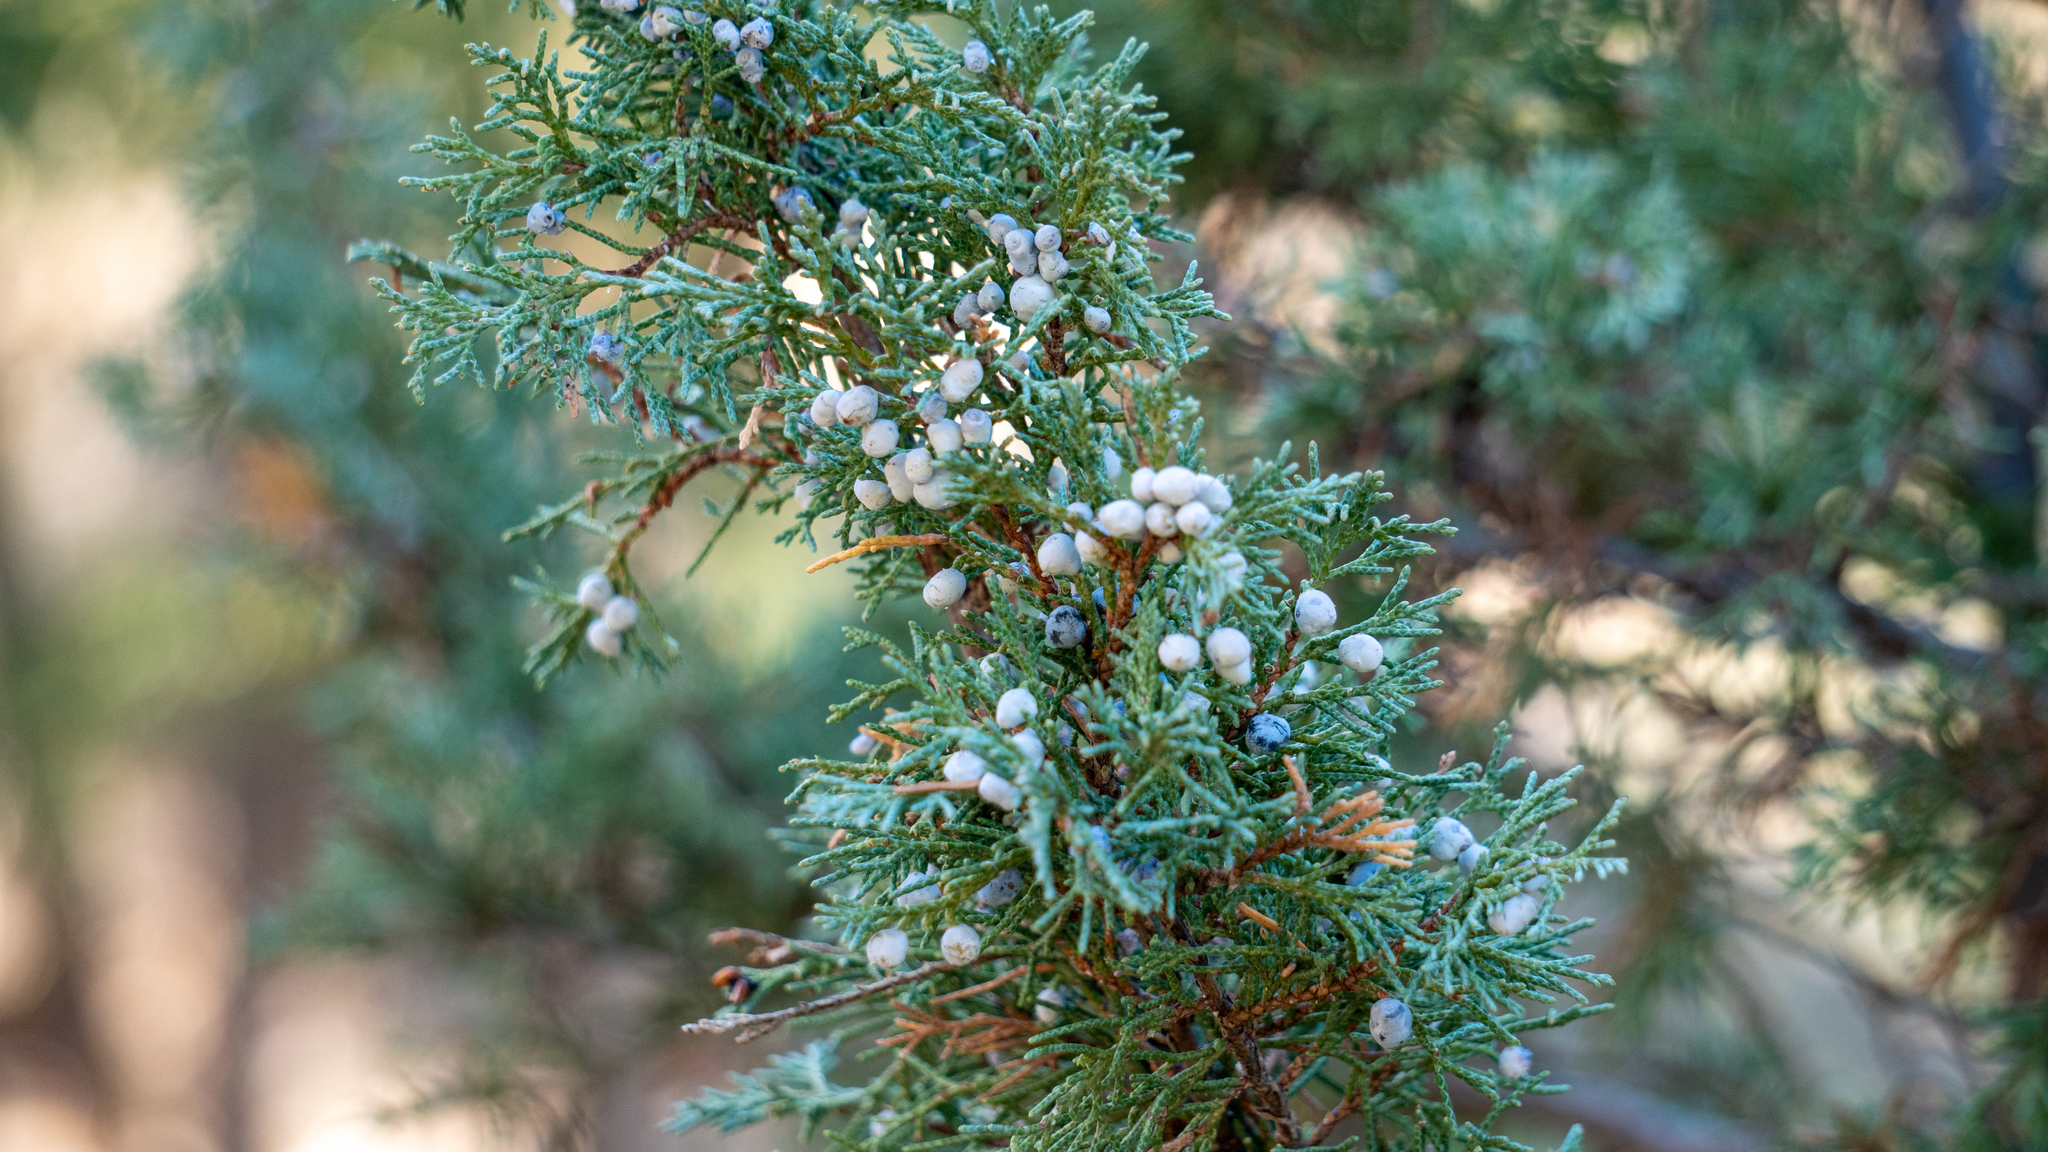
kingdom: Plantae
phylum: Tracheophyta
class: Pinopsida
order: Pinales
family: Cupressaceae
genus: Juniperus
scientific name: Juniperus scopulorum
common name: Rocky mountain juniper
